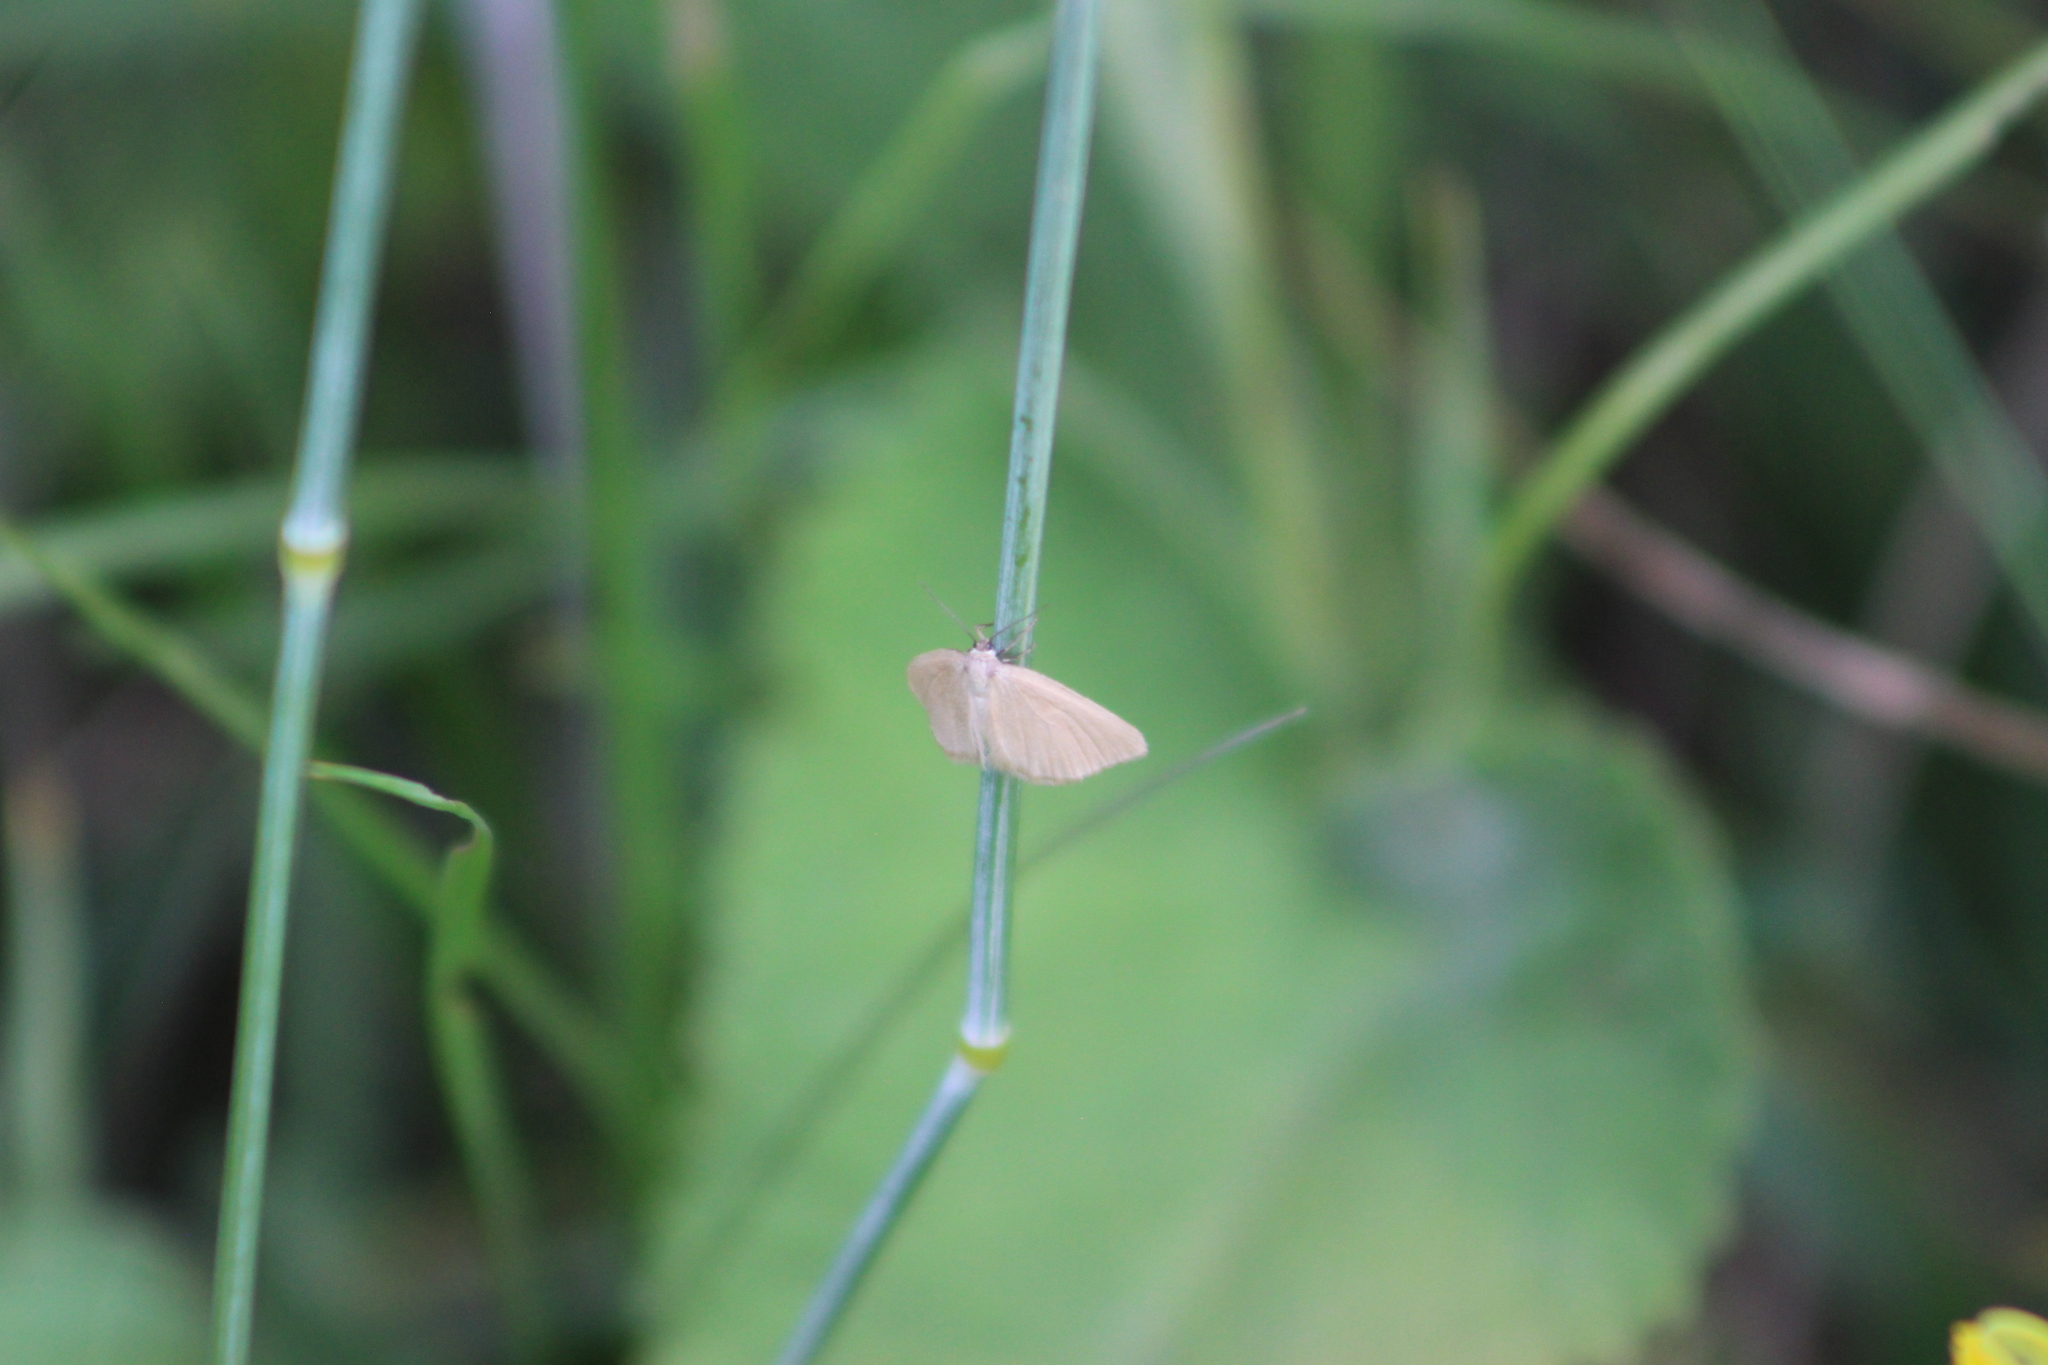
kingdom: Animalia
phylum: Arthropoda
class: Insecta
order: Lepidoptera
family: Geometridae
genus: Minoa
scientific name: Minoa murinata
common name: Drab looper
